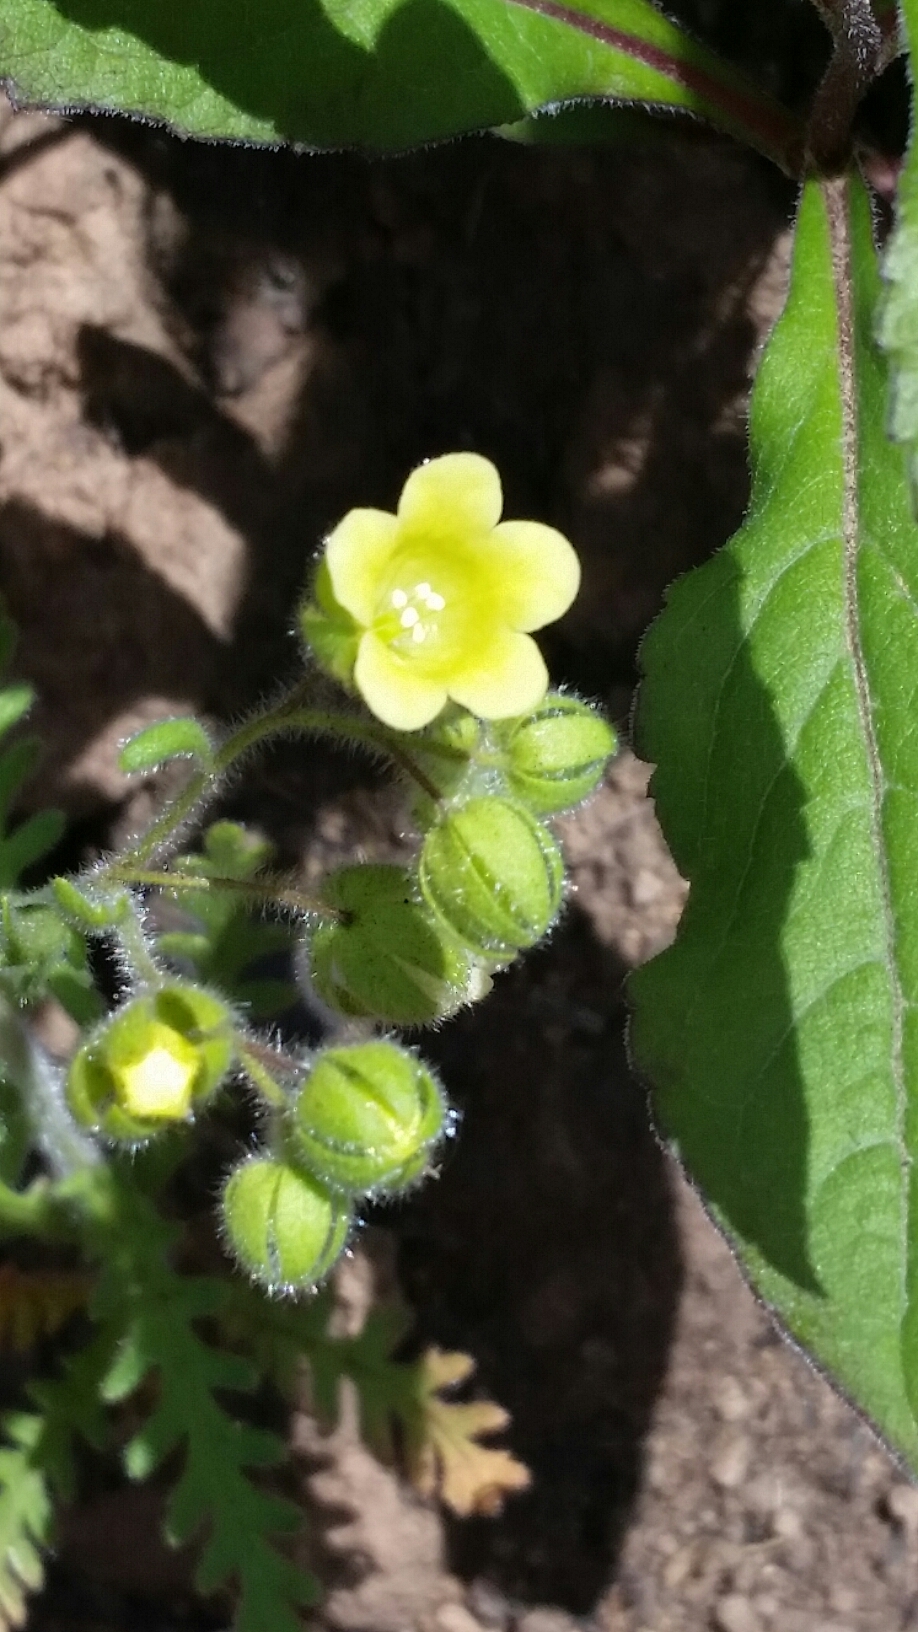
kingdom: Plantae
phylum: Tracheophyta
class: Magnoliopsida
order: Boraginales
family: Hydrophyllaceae
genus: Emmenanthe
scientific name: Emmenanthe penduliflora
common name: Whispering-bells
